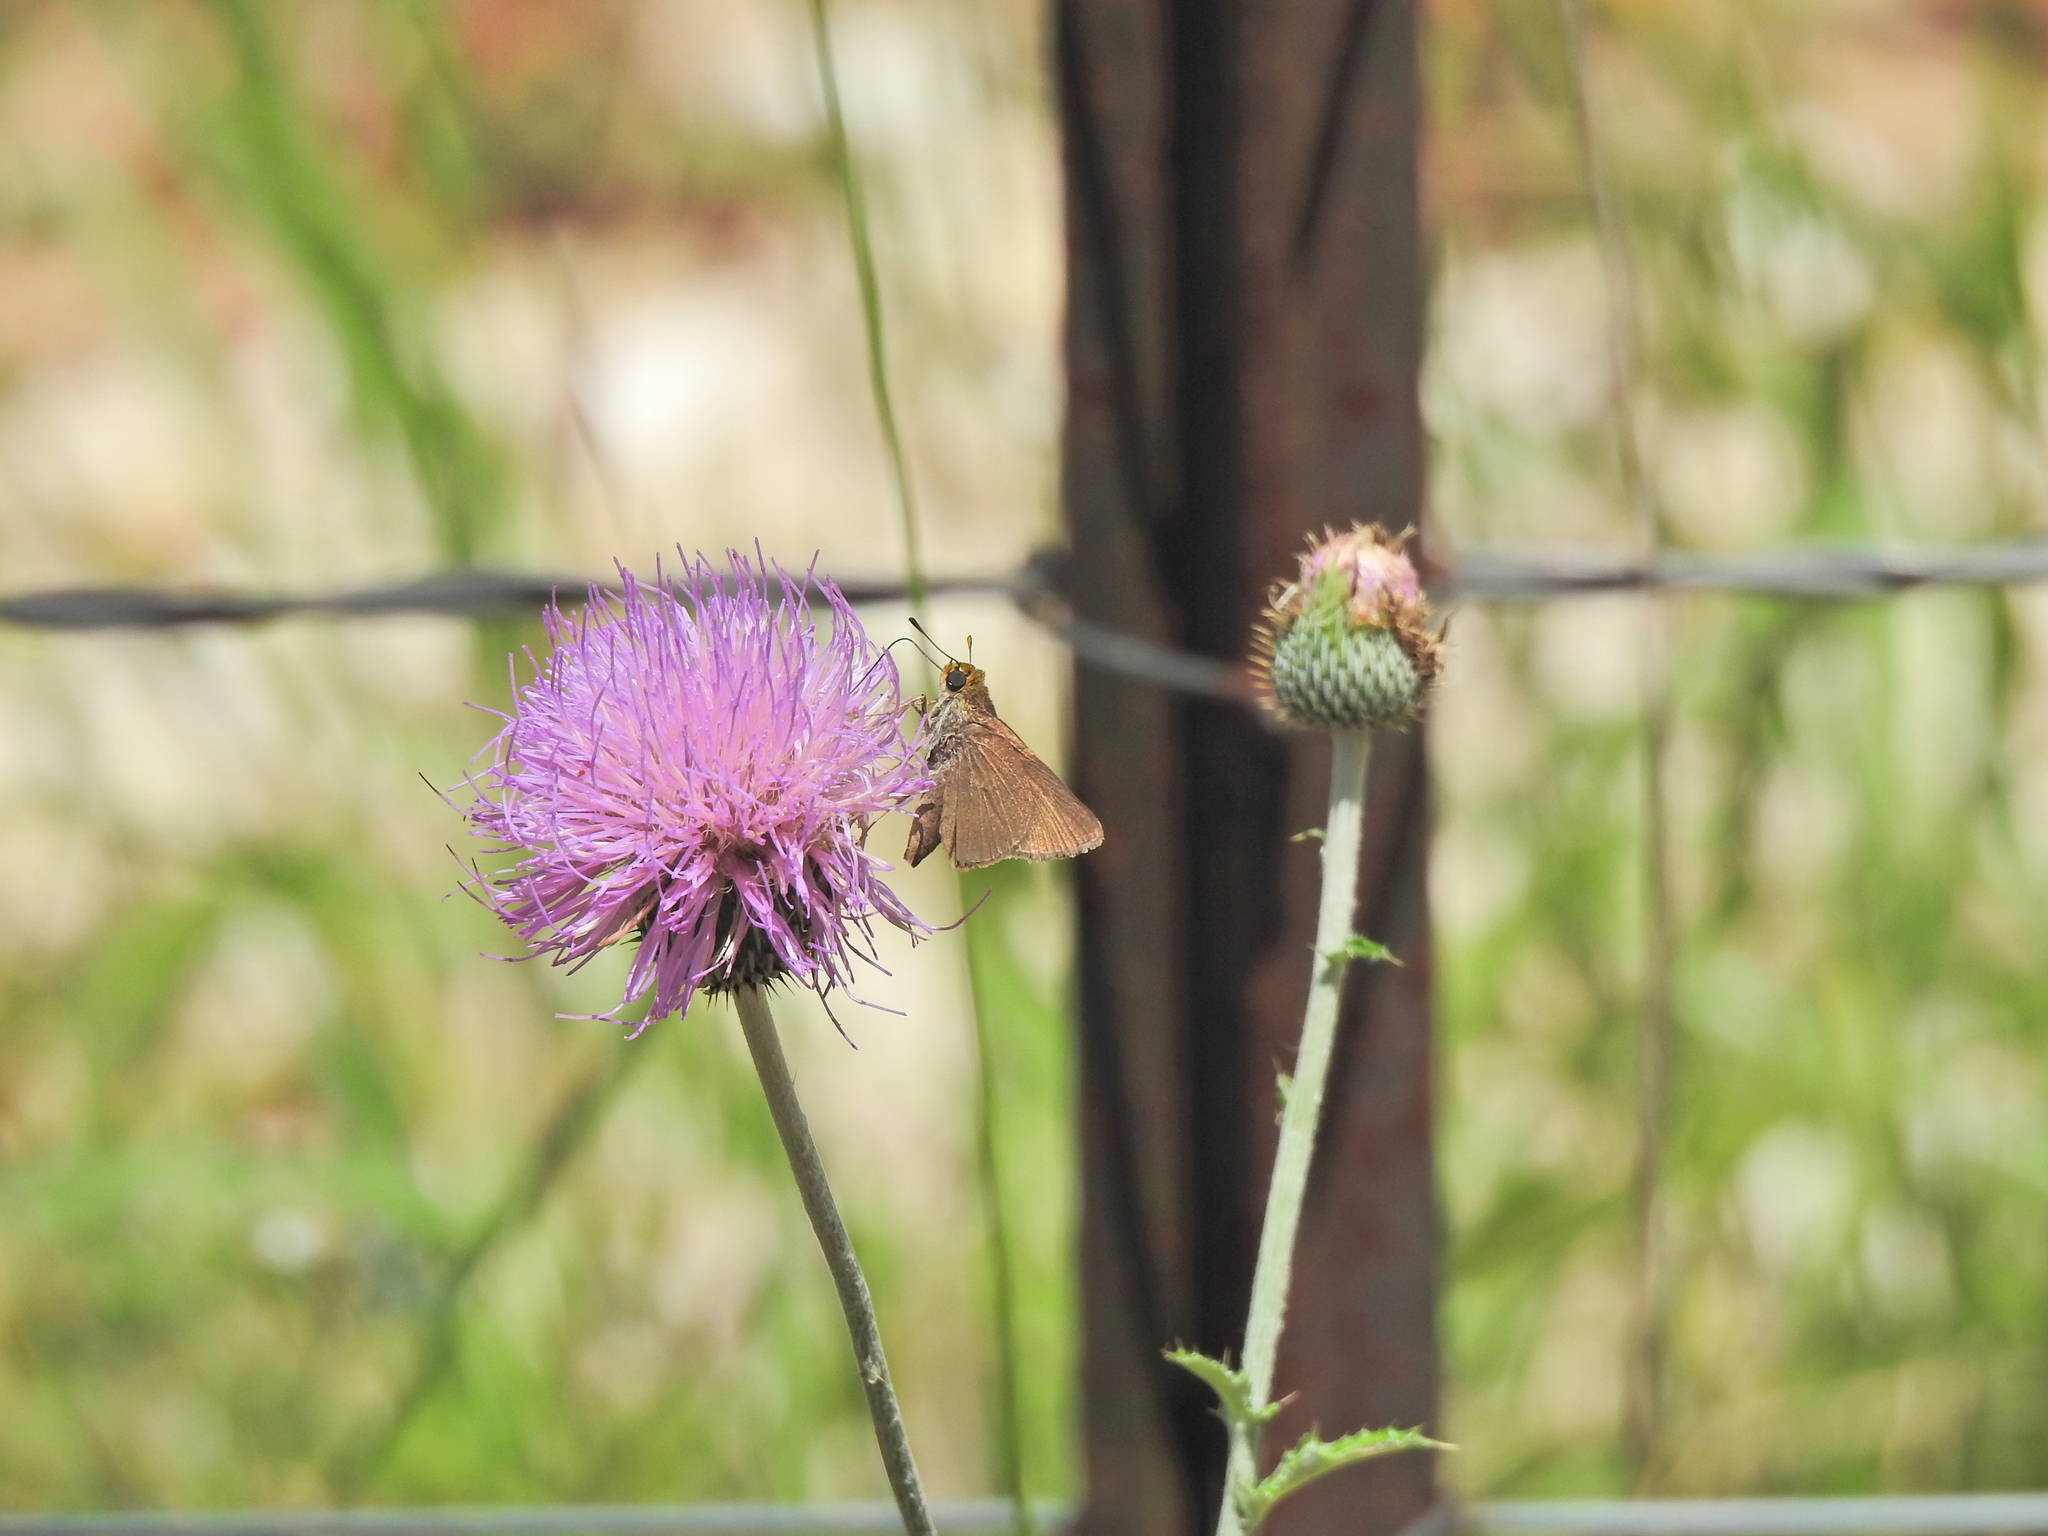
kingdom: Animalia
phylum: Arthropoda
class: Insecta
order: Lepidoptera
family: Hesperiidae
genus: Euphyes
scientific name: Euphyes vestris
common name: Dun skipper
